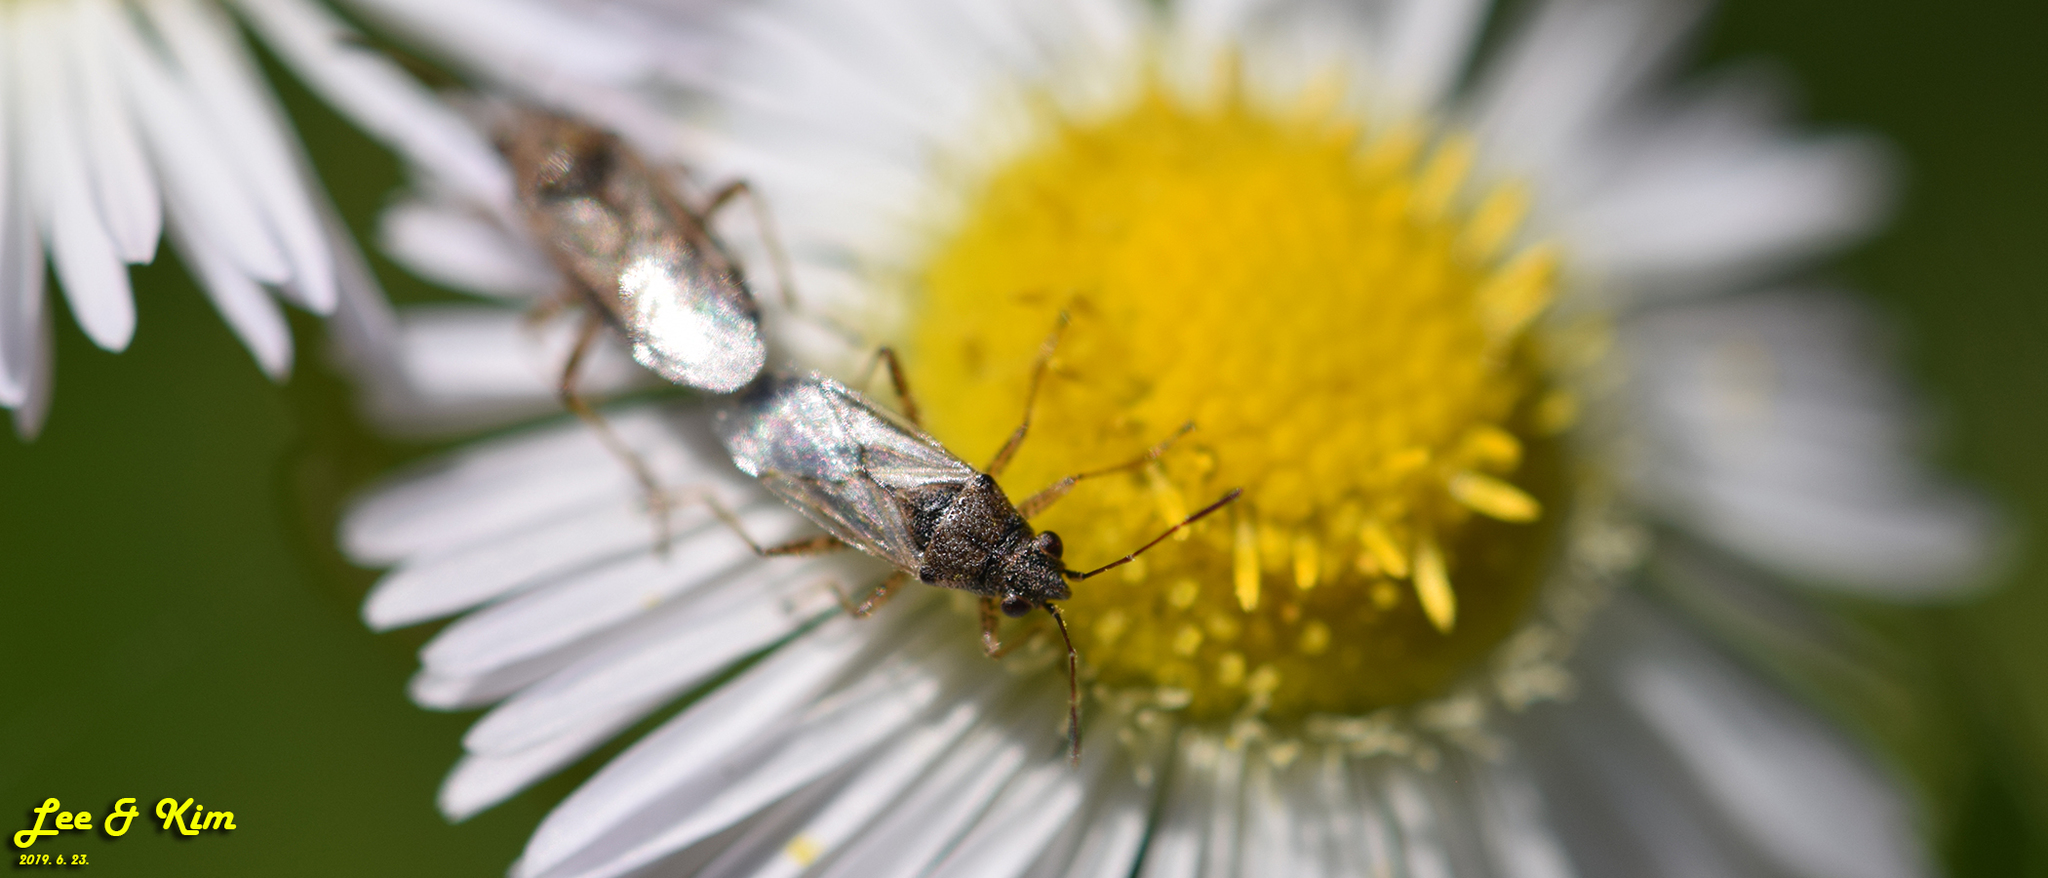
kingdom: Animalia
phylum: Arthropoda
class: Insecta
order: Hemiptera
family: Lygaeidae
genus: Nysius
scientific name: Nysius plebeius
